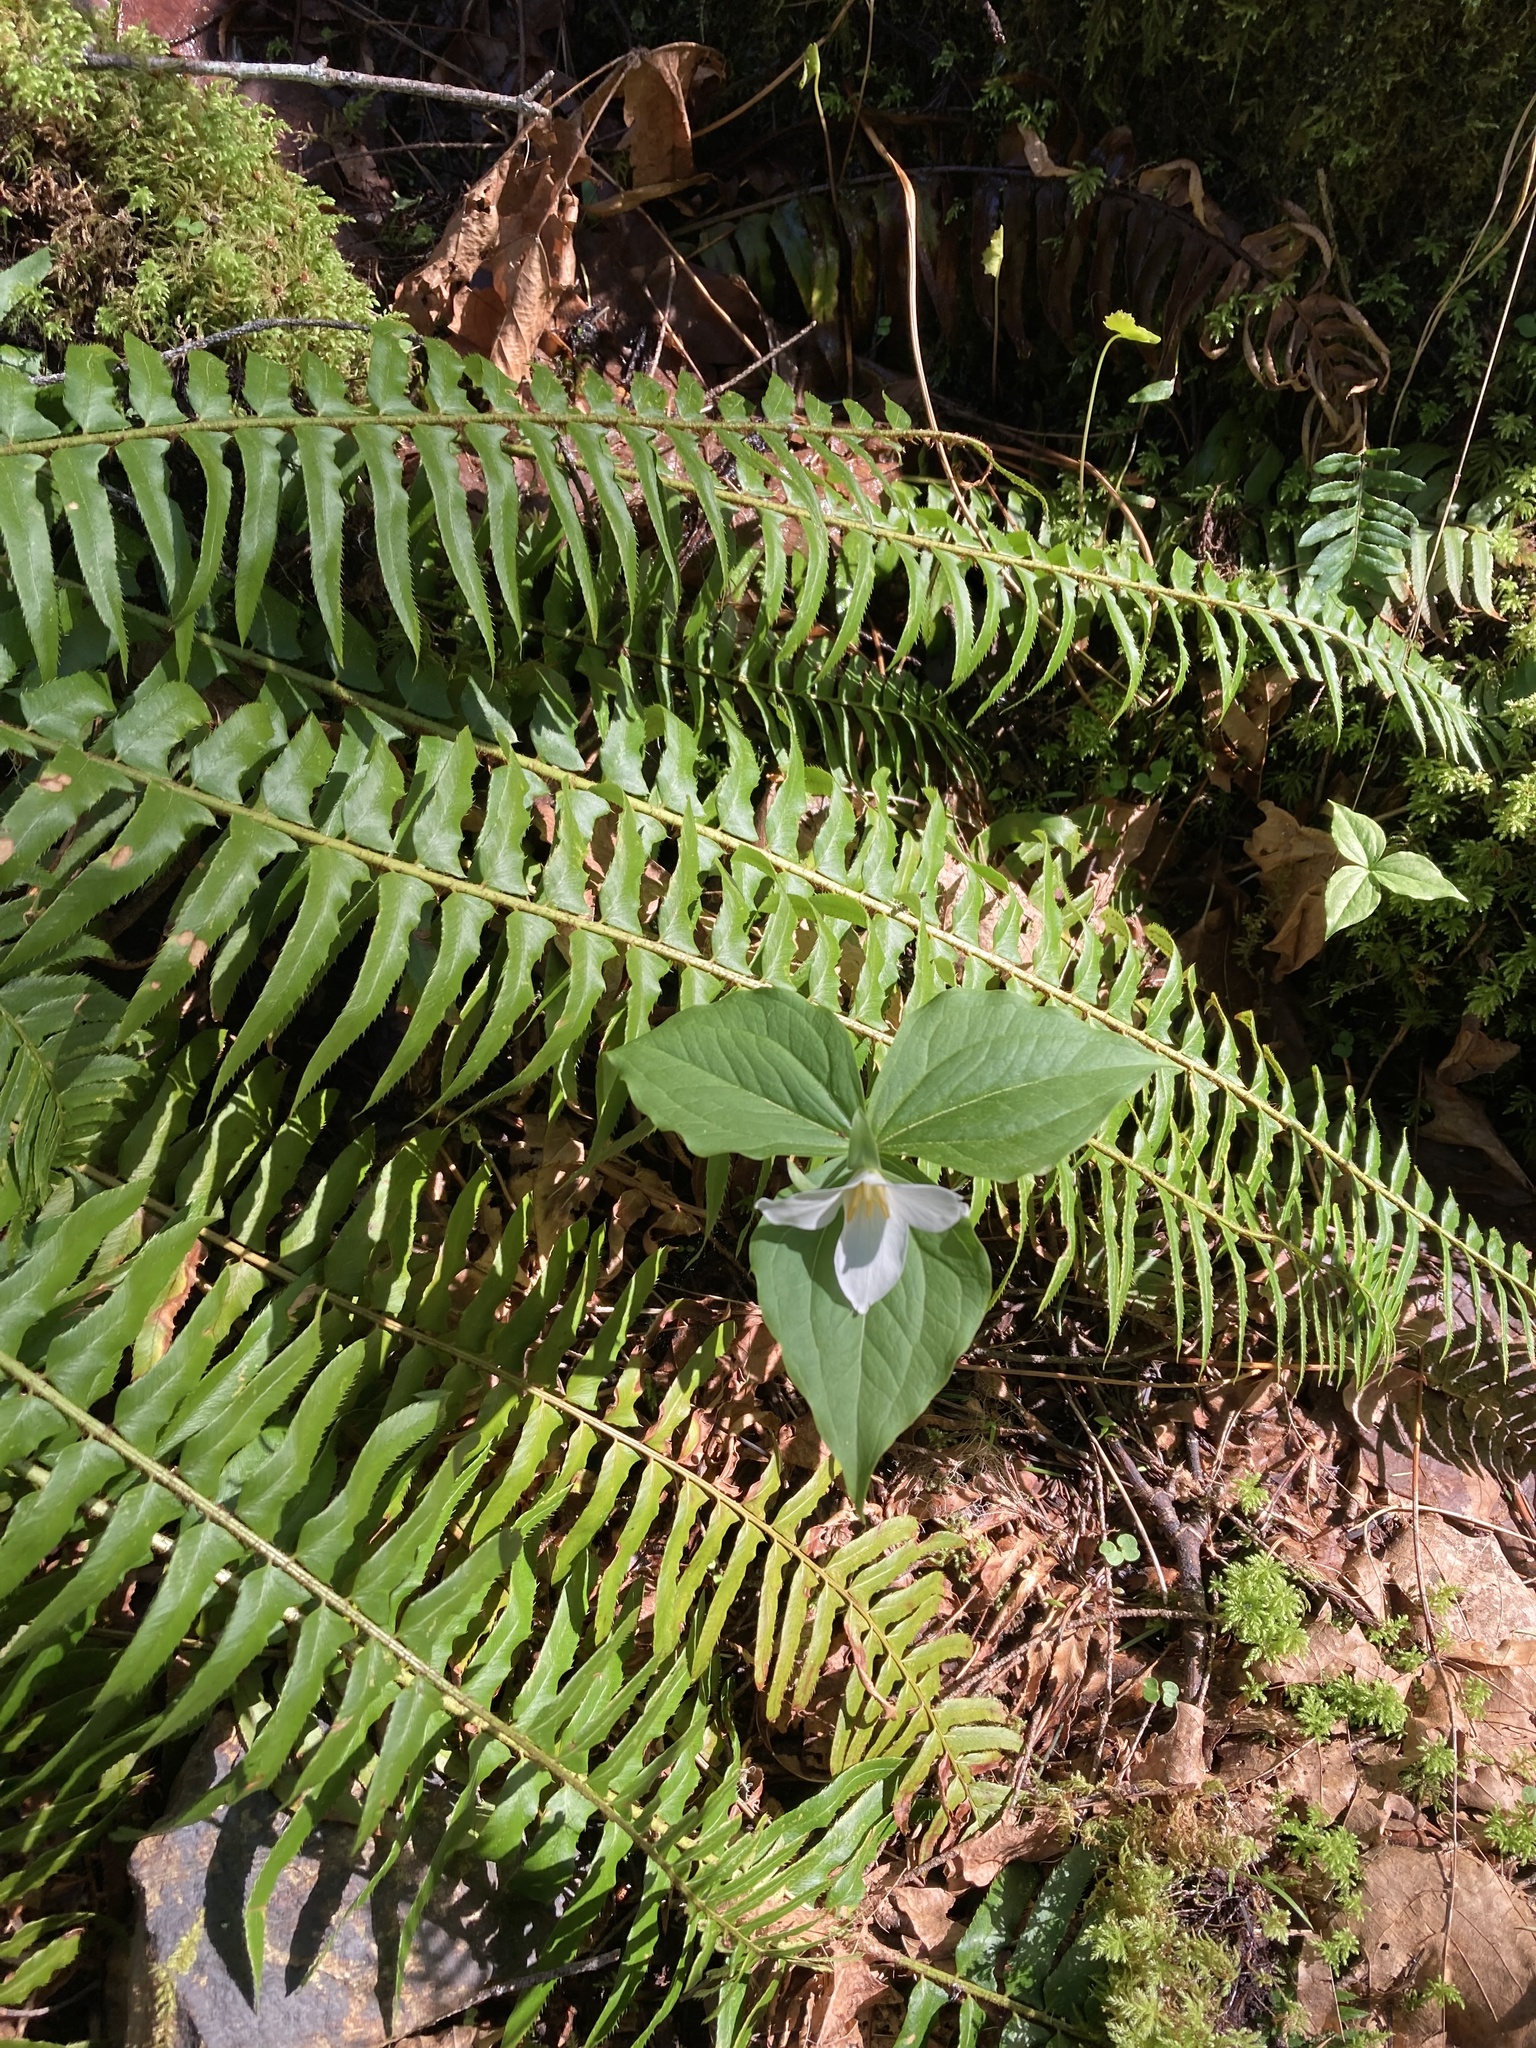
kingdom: Plantae
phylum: Tracheophyta
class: Liliopsida
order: Liliales
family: Melanthiaceae
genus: Trillium
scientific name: Trillium ovatum
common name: Pacific trillium
